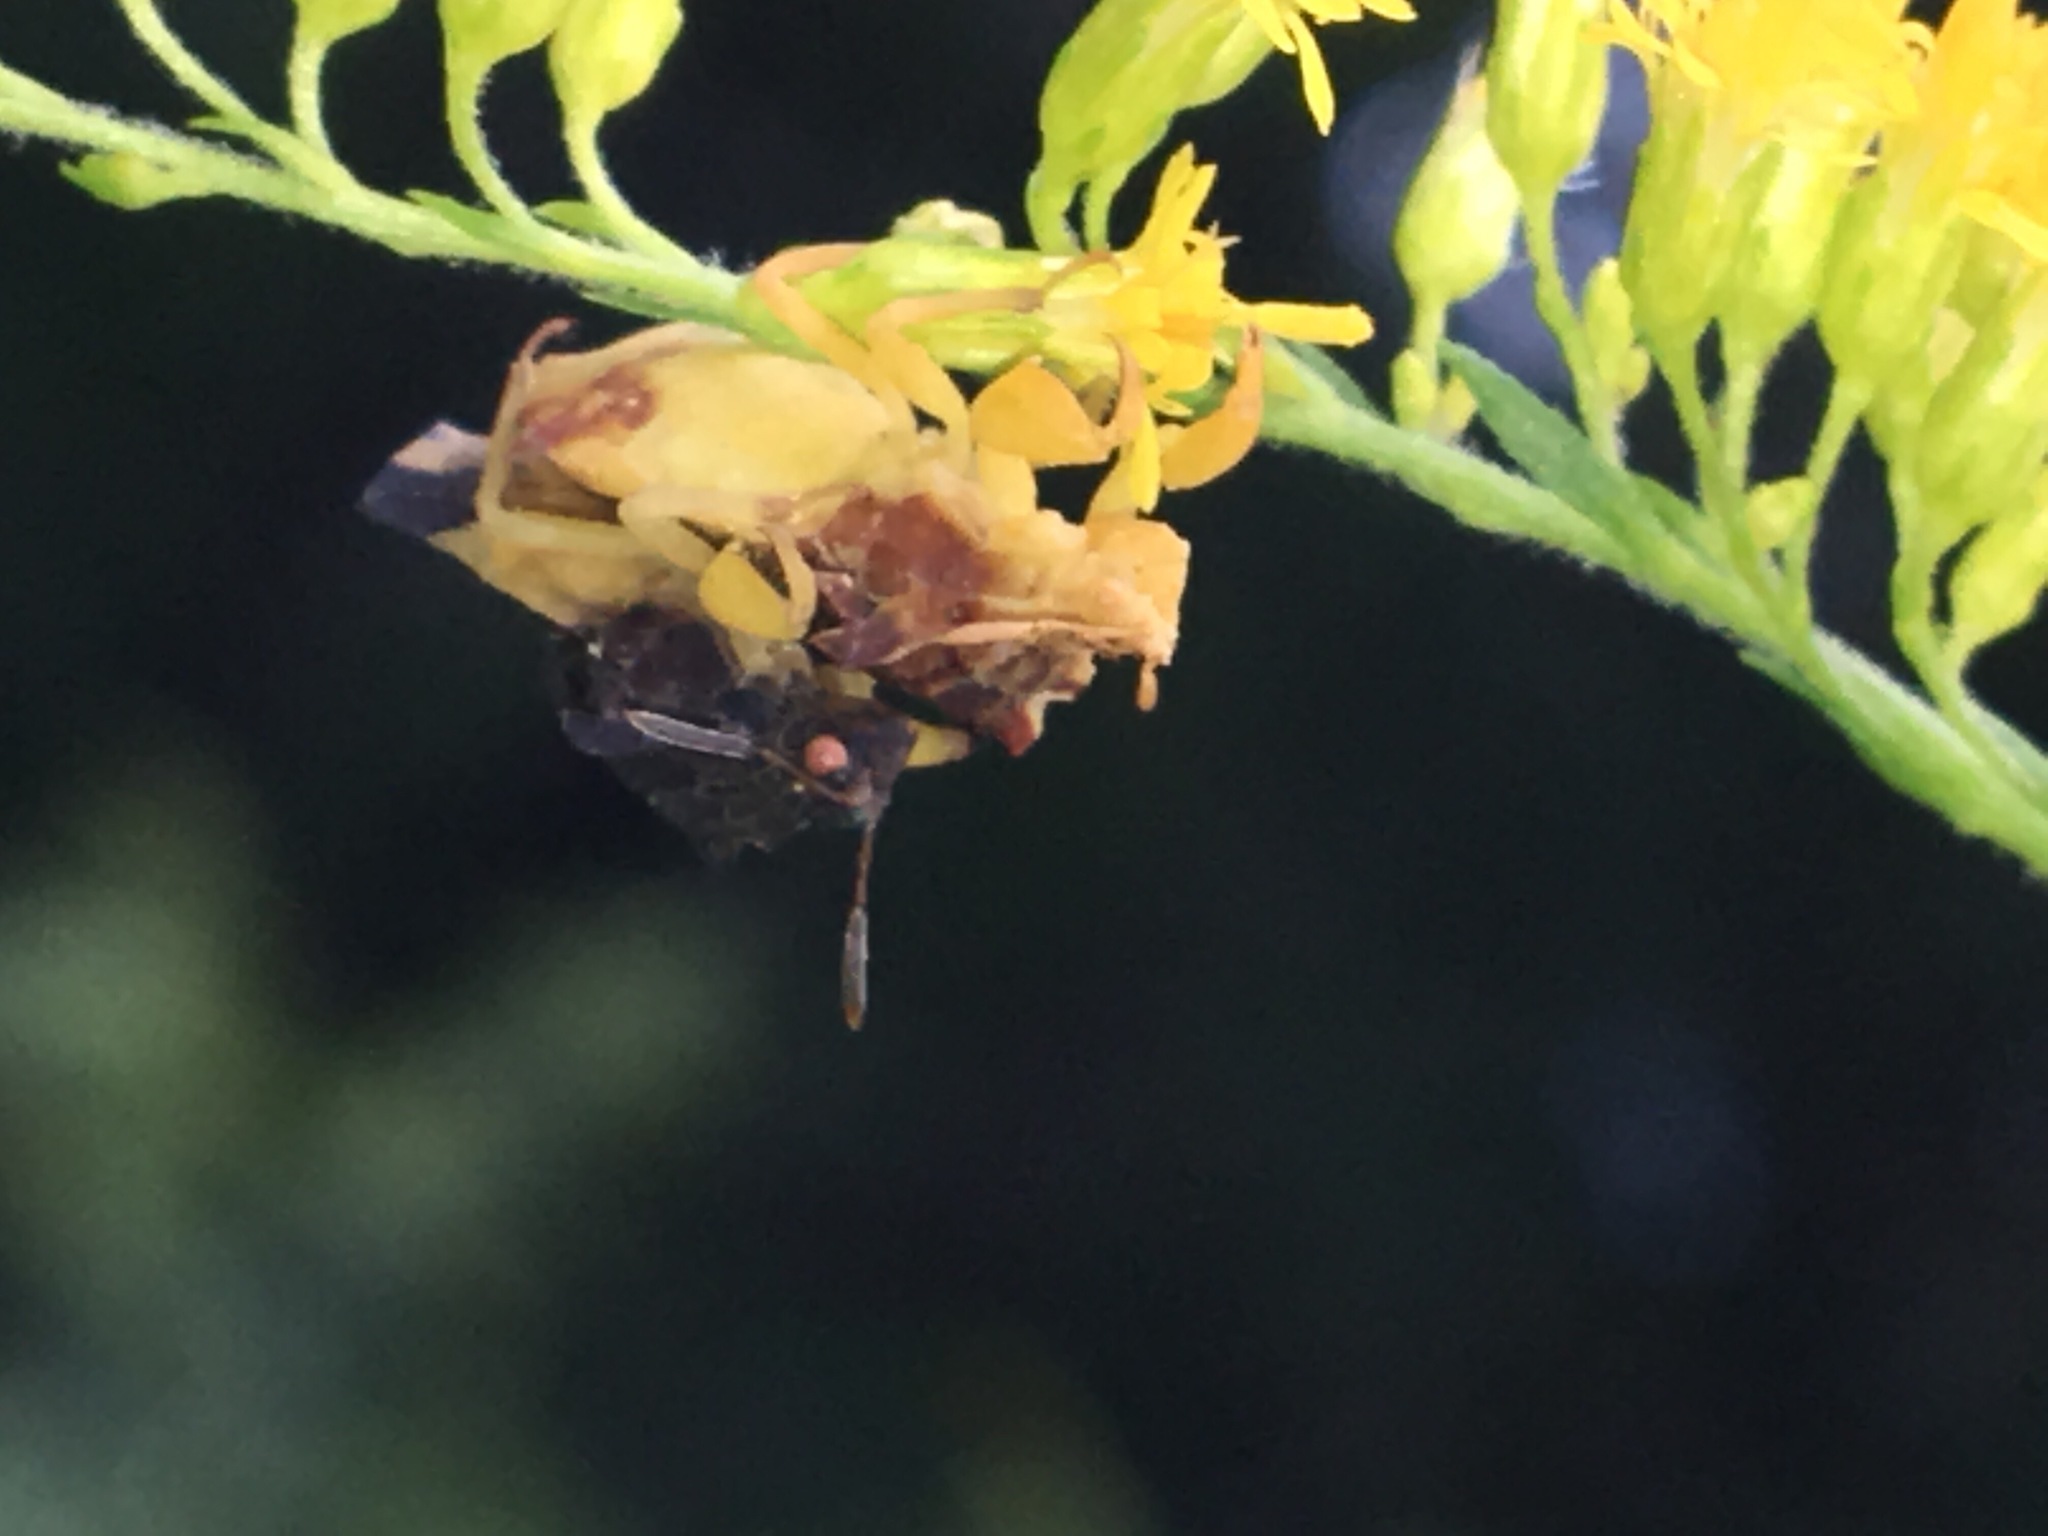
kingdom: Animalia
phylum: Arthropoda
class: Insecta
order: Hemiptera
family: Reduviidae
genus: Phymata
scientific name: Phymata pennsylvanica
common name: Pennsylvania ambush bug
